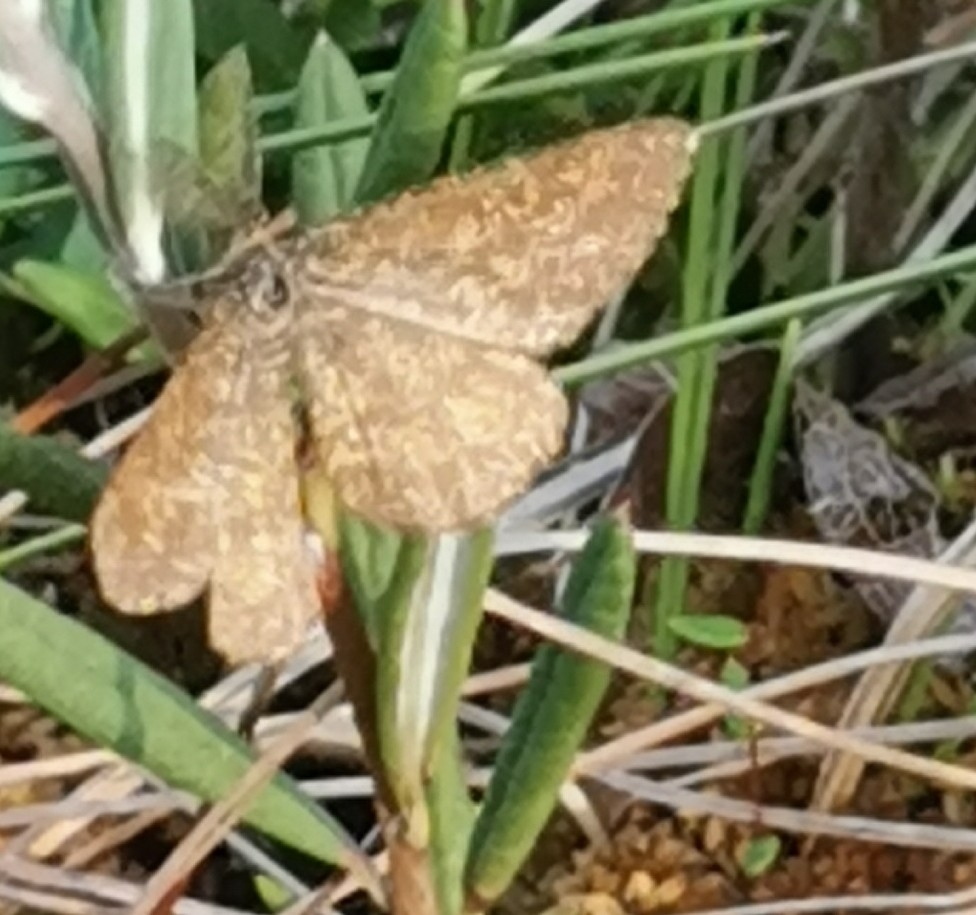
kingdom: Animalia
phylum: Arthropoda
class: Insecta
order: Lepidoptera
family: Geometridae
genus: Ematurga
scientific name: Ematurga atomaria
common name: Common heath
